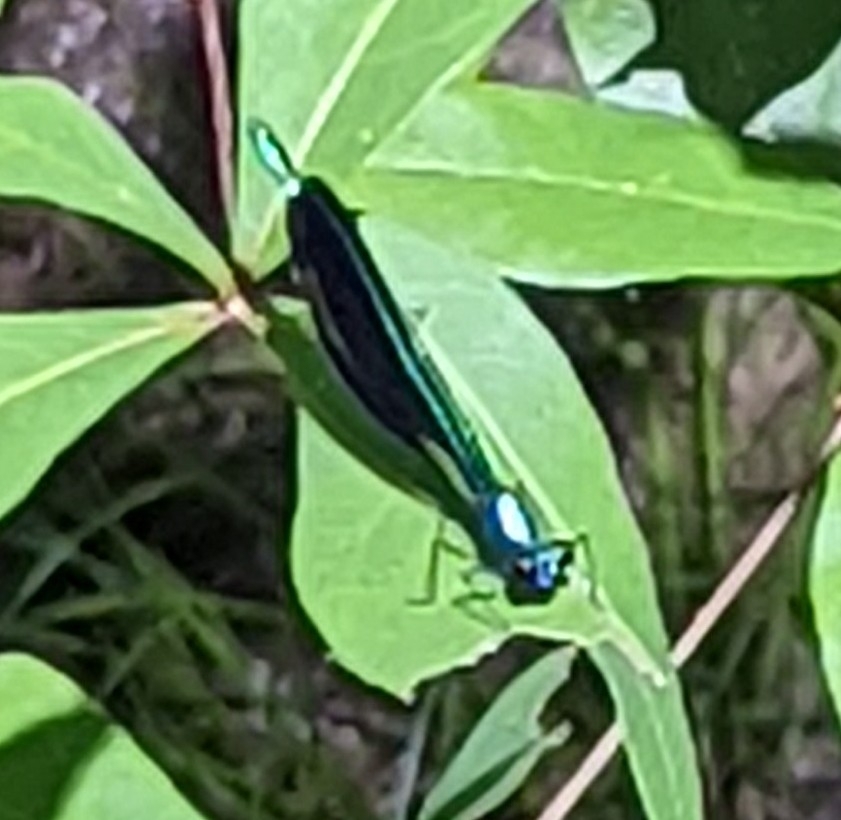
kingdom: Animalia
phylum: Arthropoda
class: Insecta
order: Odonata
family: Calopterygidae
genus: Calopteryx
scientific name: Calopteryx maculata
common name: Ebony jewelwing
